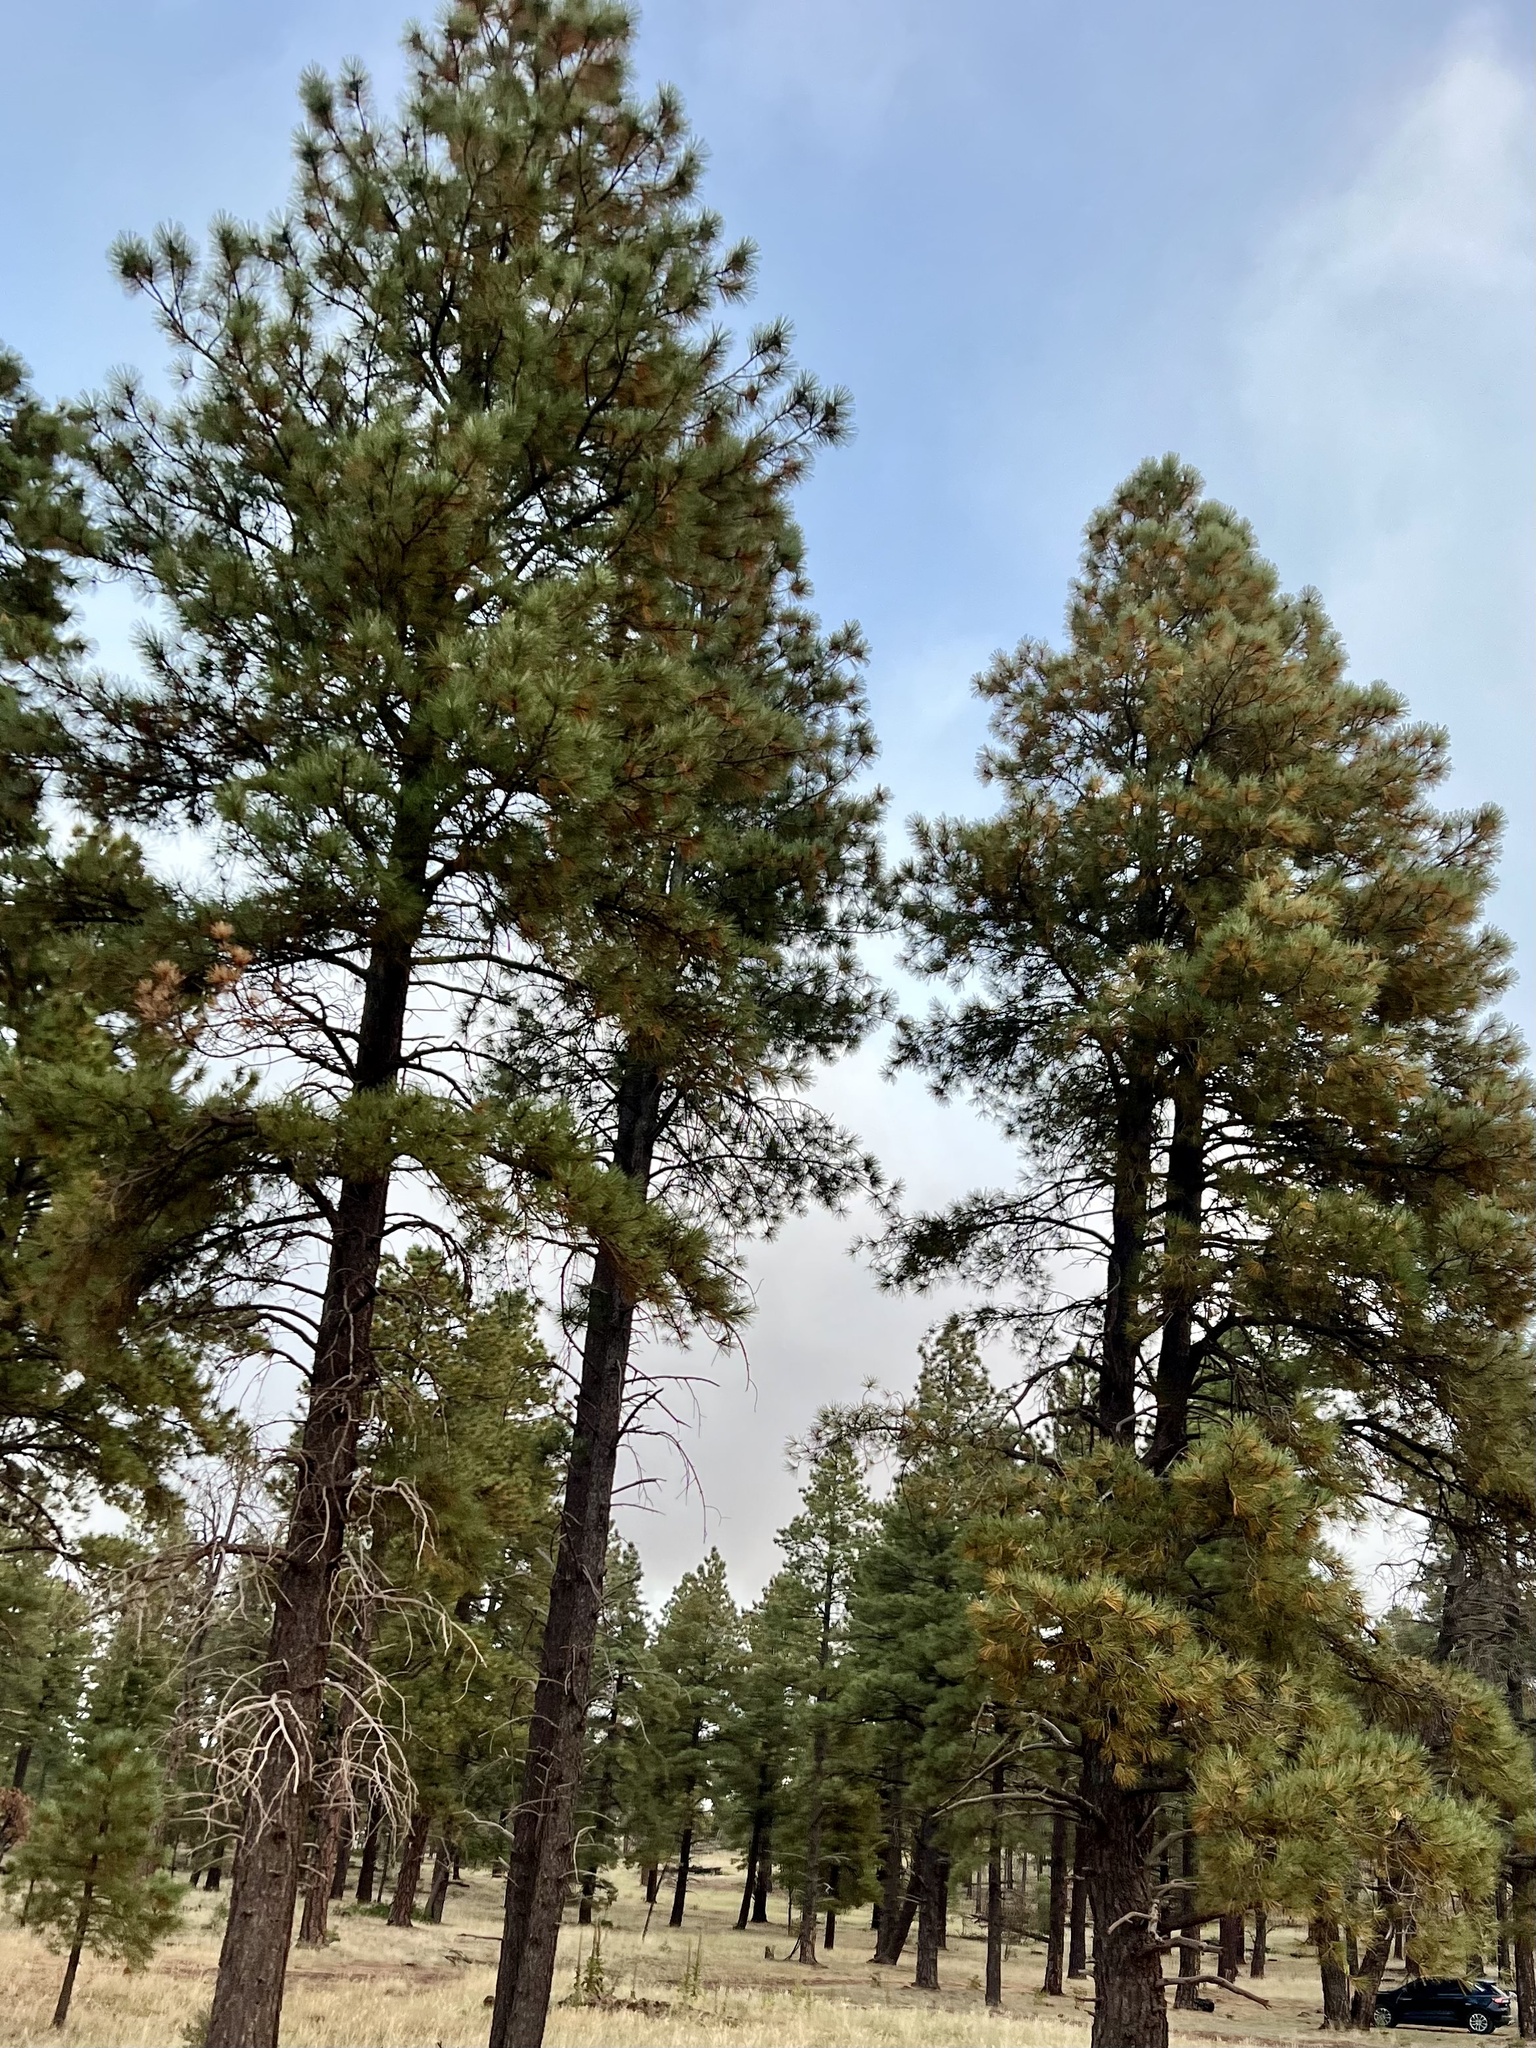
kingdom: Plantae
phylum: Tracheophyta
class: Pinopsida
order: Pinales
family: Pinaceae
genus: Pinus
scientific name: Pinus ponderosa
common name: Western yellow-pine
